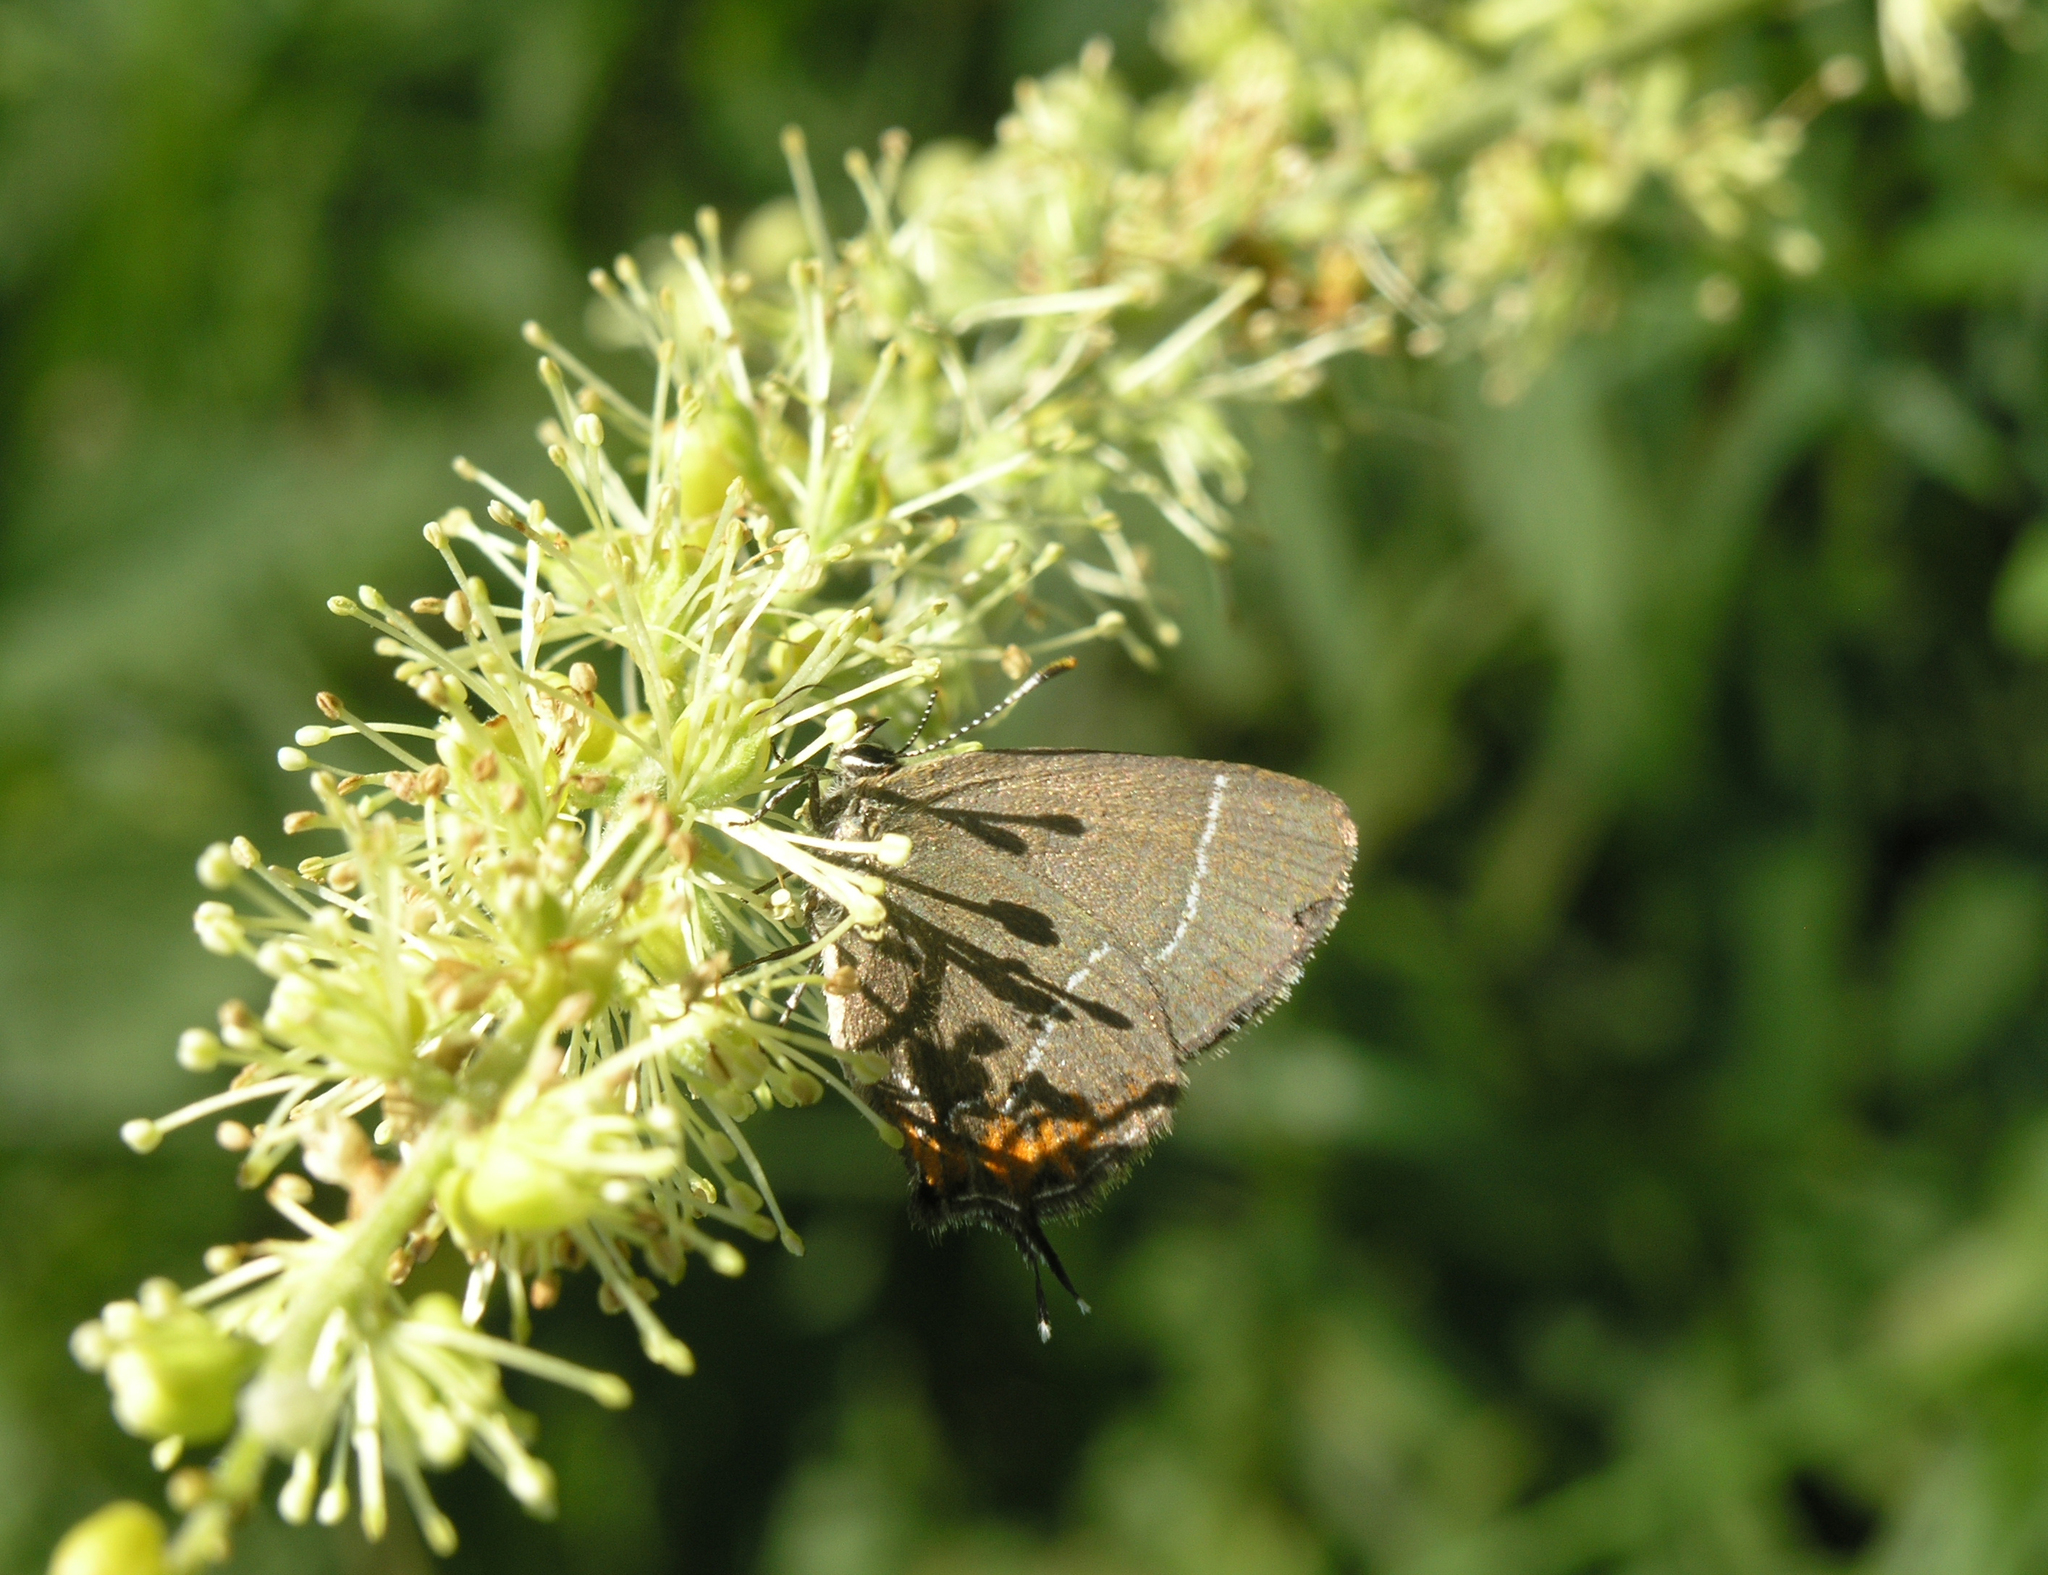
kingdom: Plantae
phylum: Tracheophyta
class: Magnoliopsida
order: Ranunculales
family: Ranunculaceae
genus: Actaea
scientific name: Actaea cimicifuga
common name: Chinese cimicifuga
